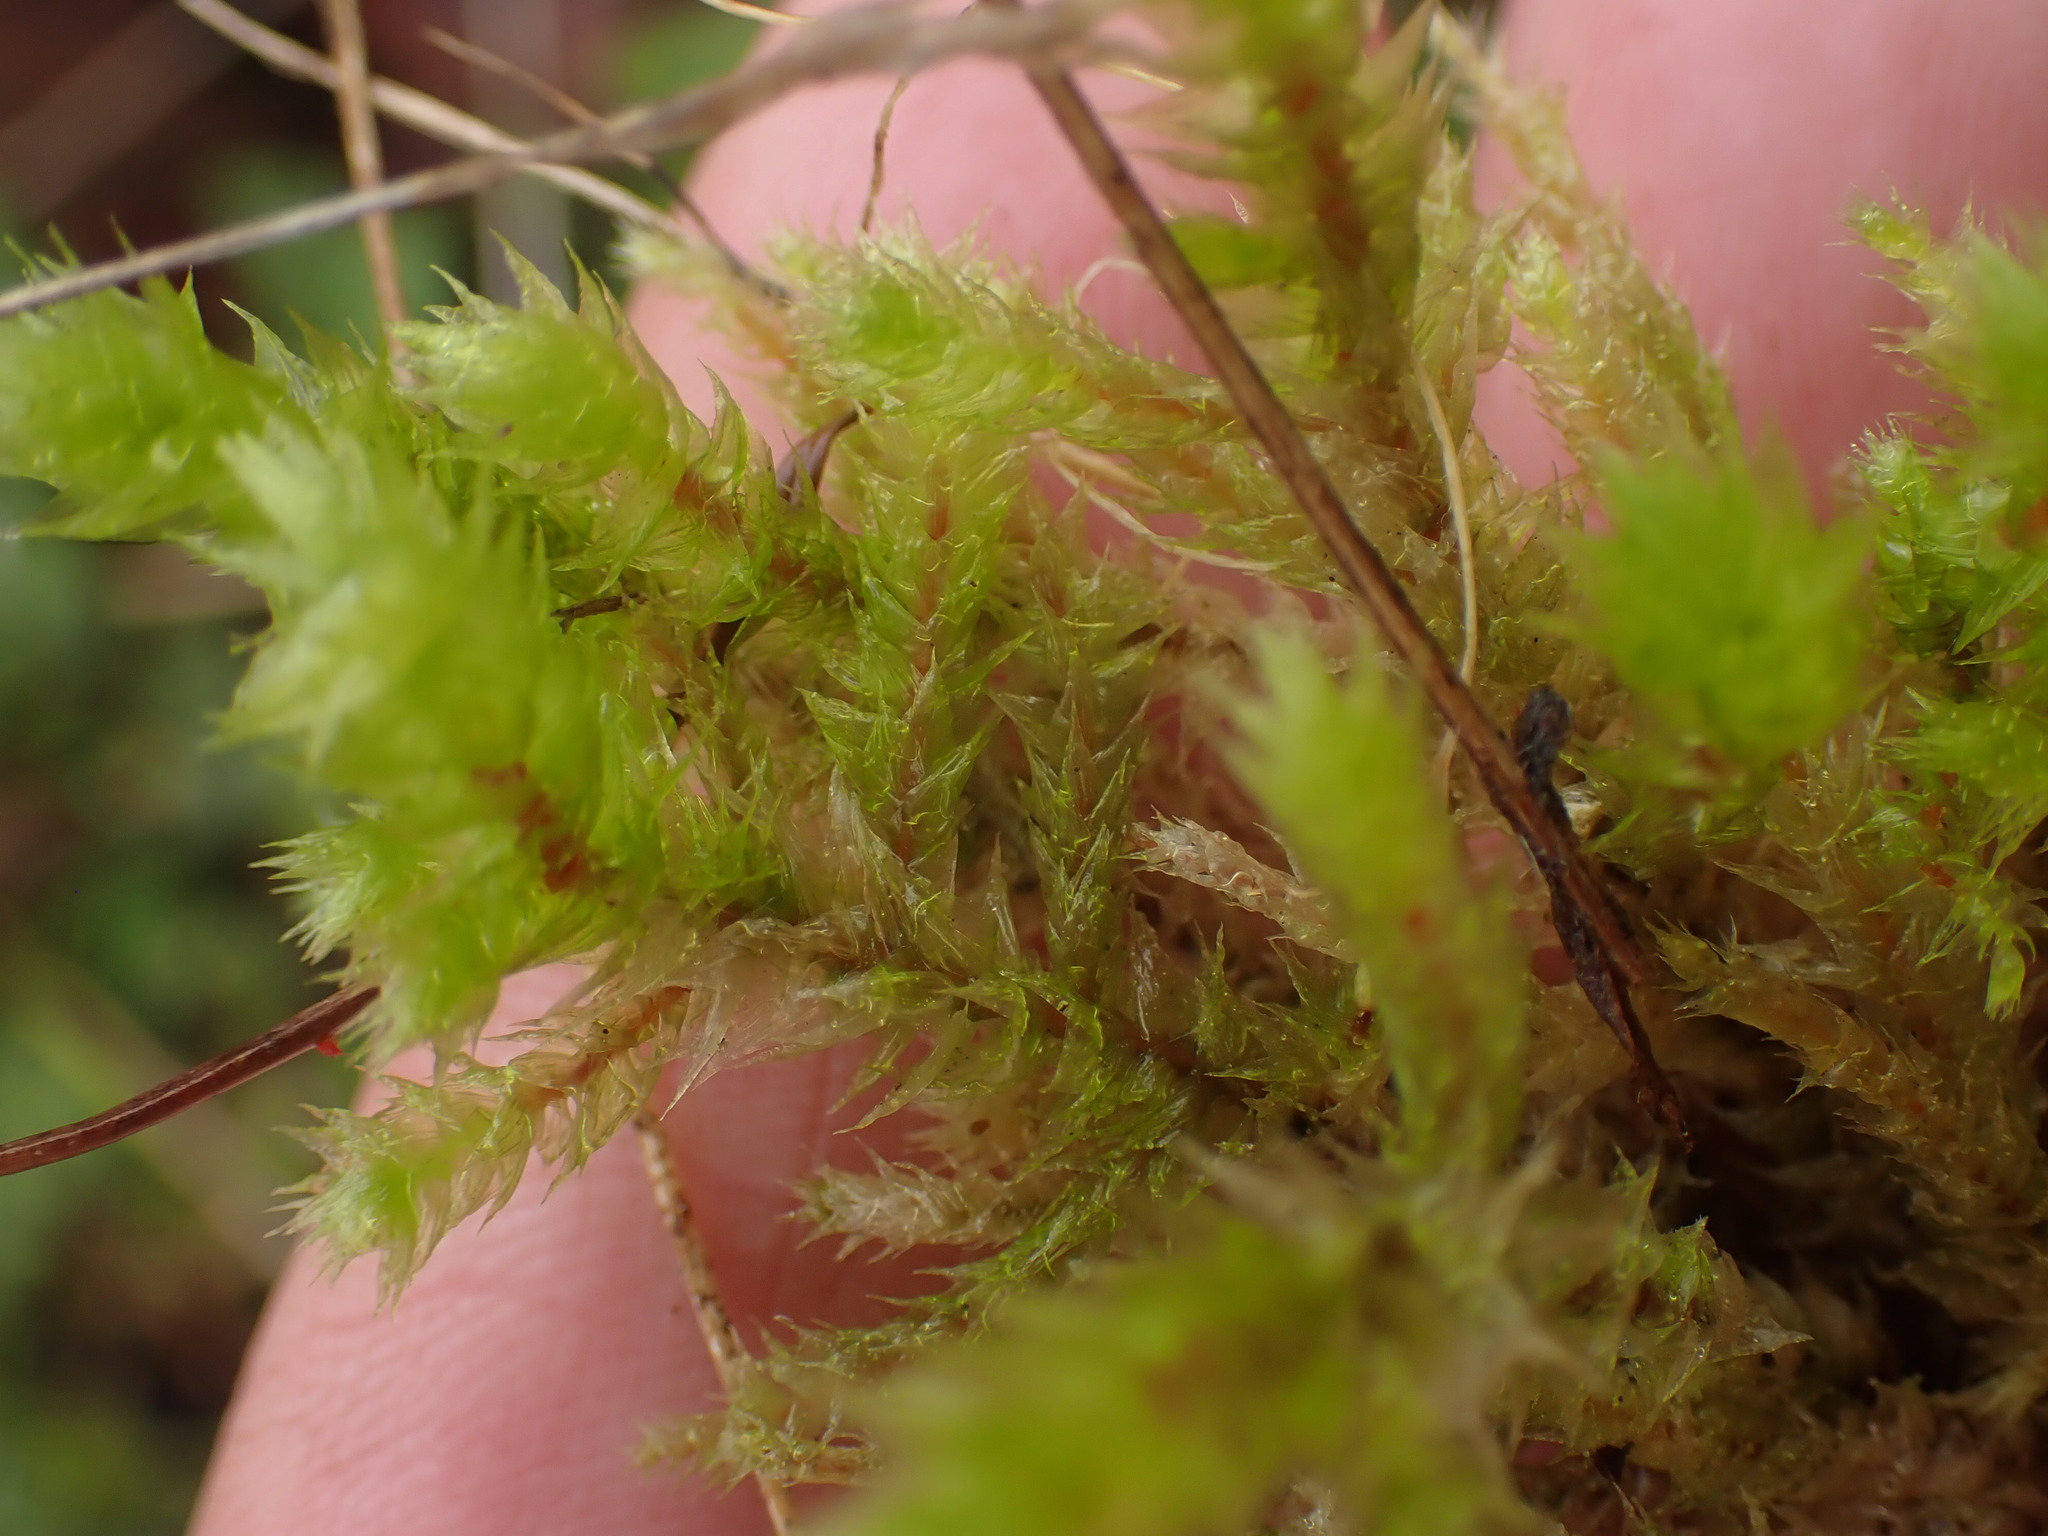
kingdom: Plantae
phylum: Bryophyta
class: Bryopsida
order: Hypnales
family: Hylocomiaceae
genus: Hylocomiadelphus
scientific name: Hylocomiadelphus triquetrus
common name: Rough goose neck moss
